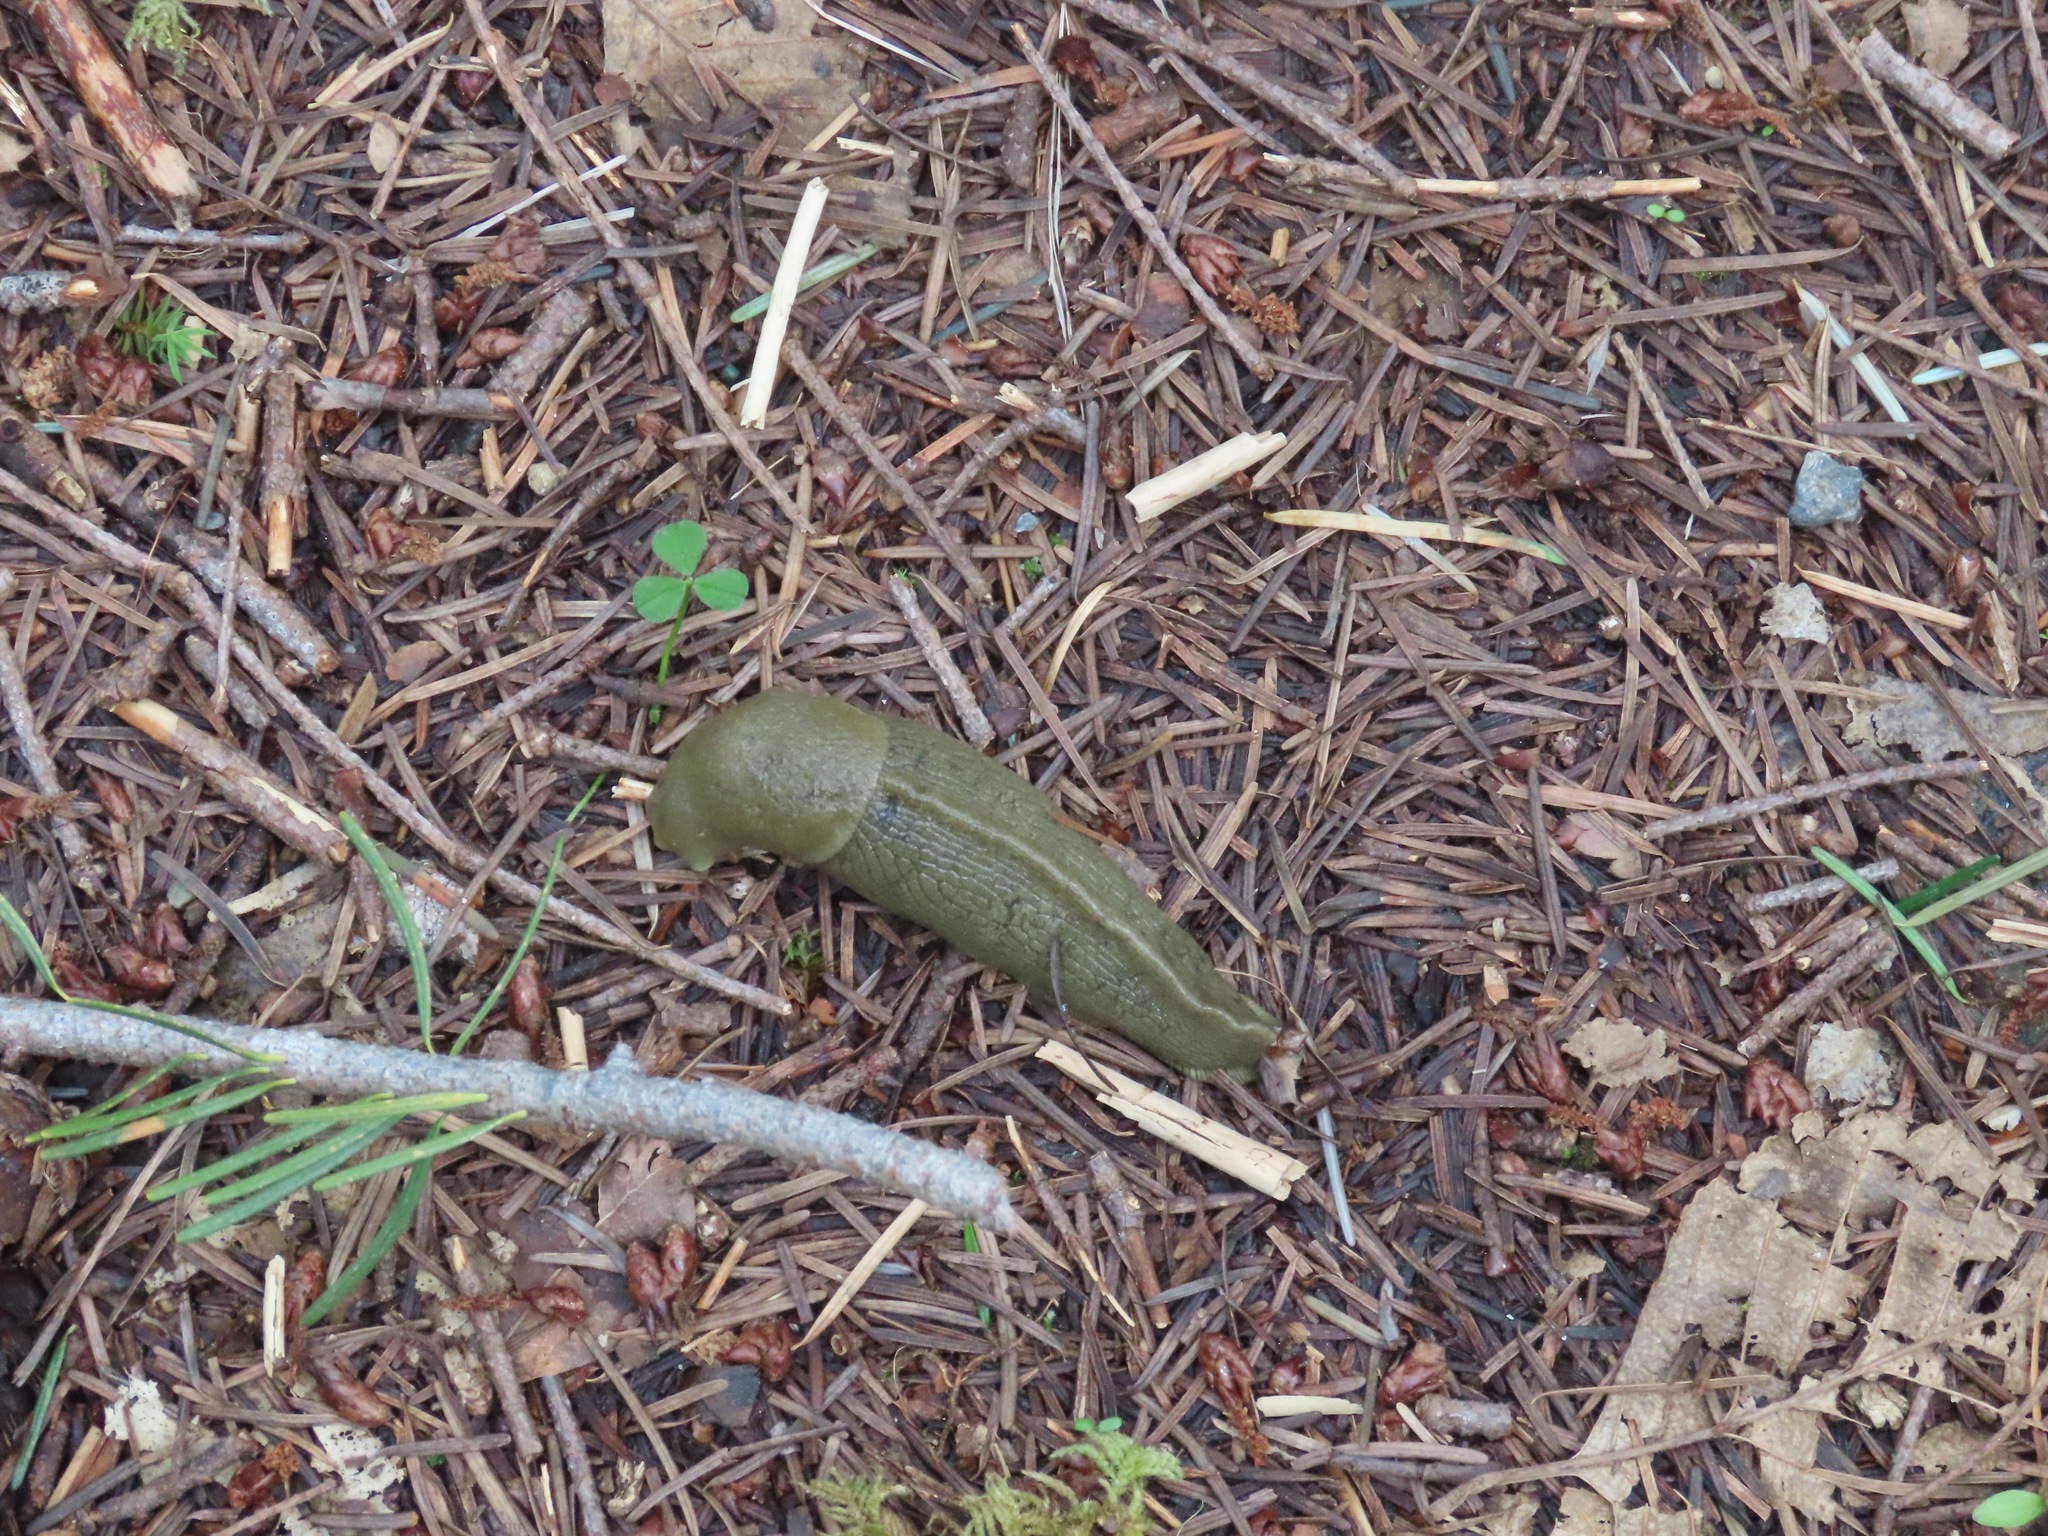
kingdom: Animalia
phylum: Mollusca
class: Gastropoda
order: Stylommatophora
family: Ariolimacidae
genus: Ariolimax
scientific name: Ariolimax columbianus
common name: Pacific banana slug
